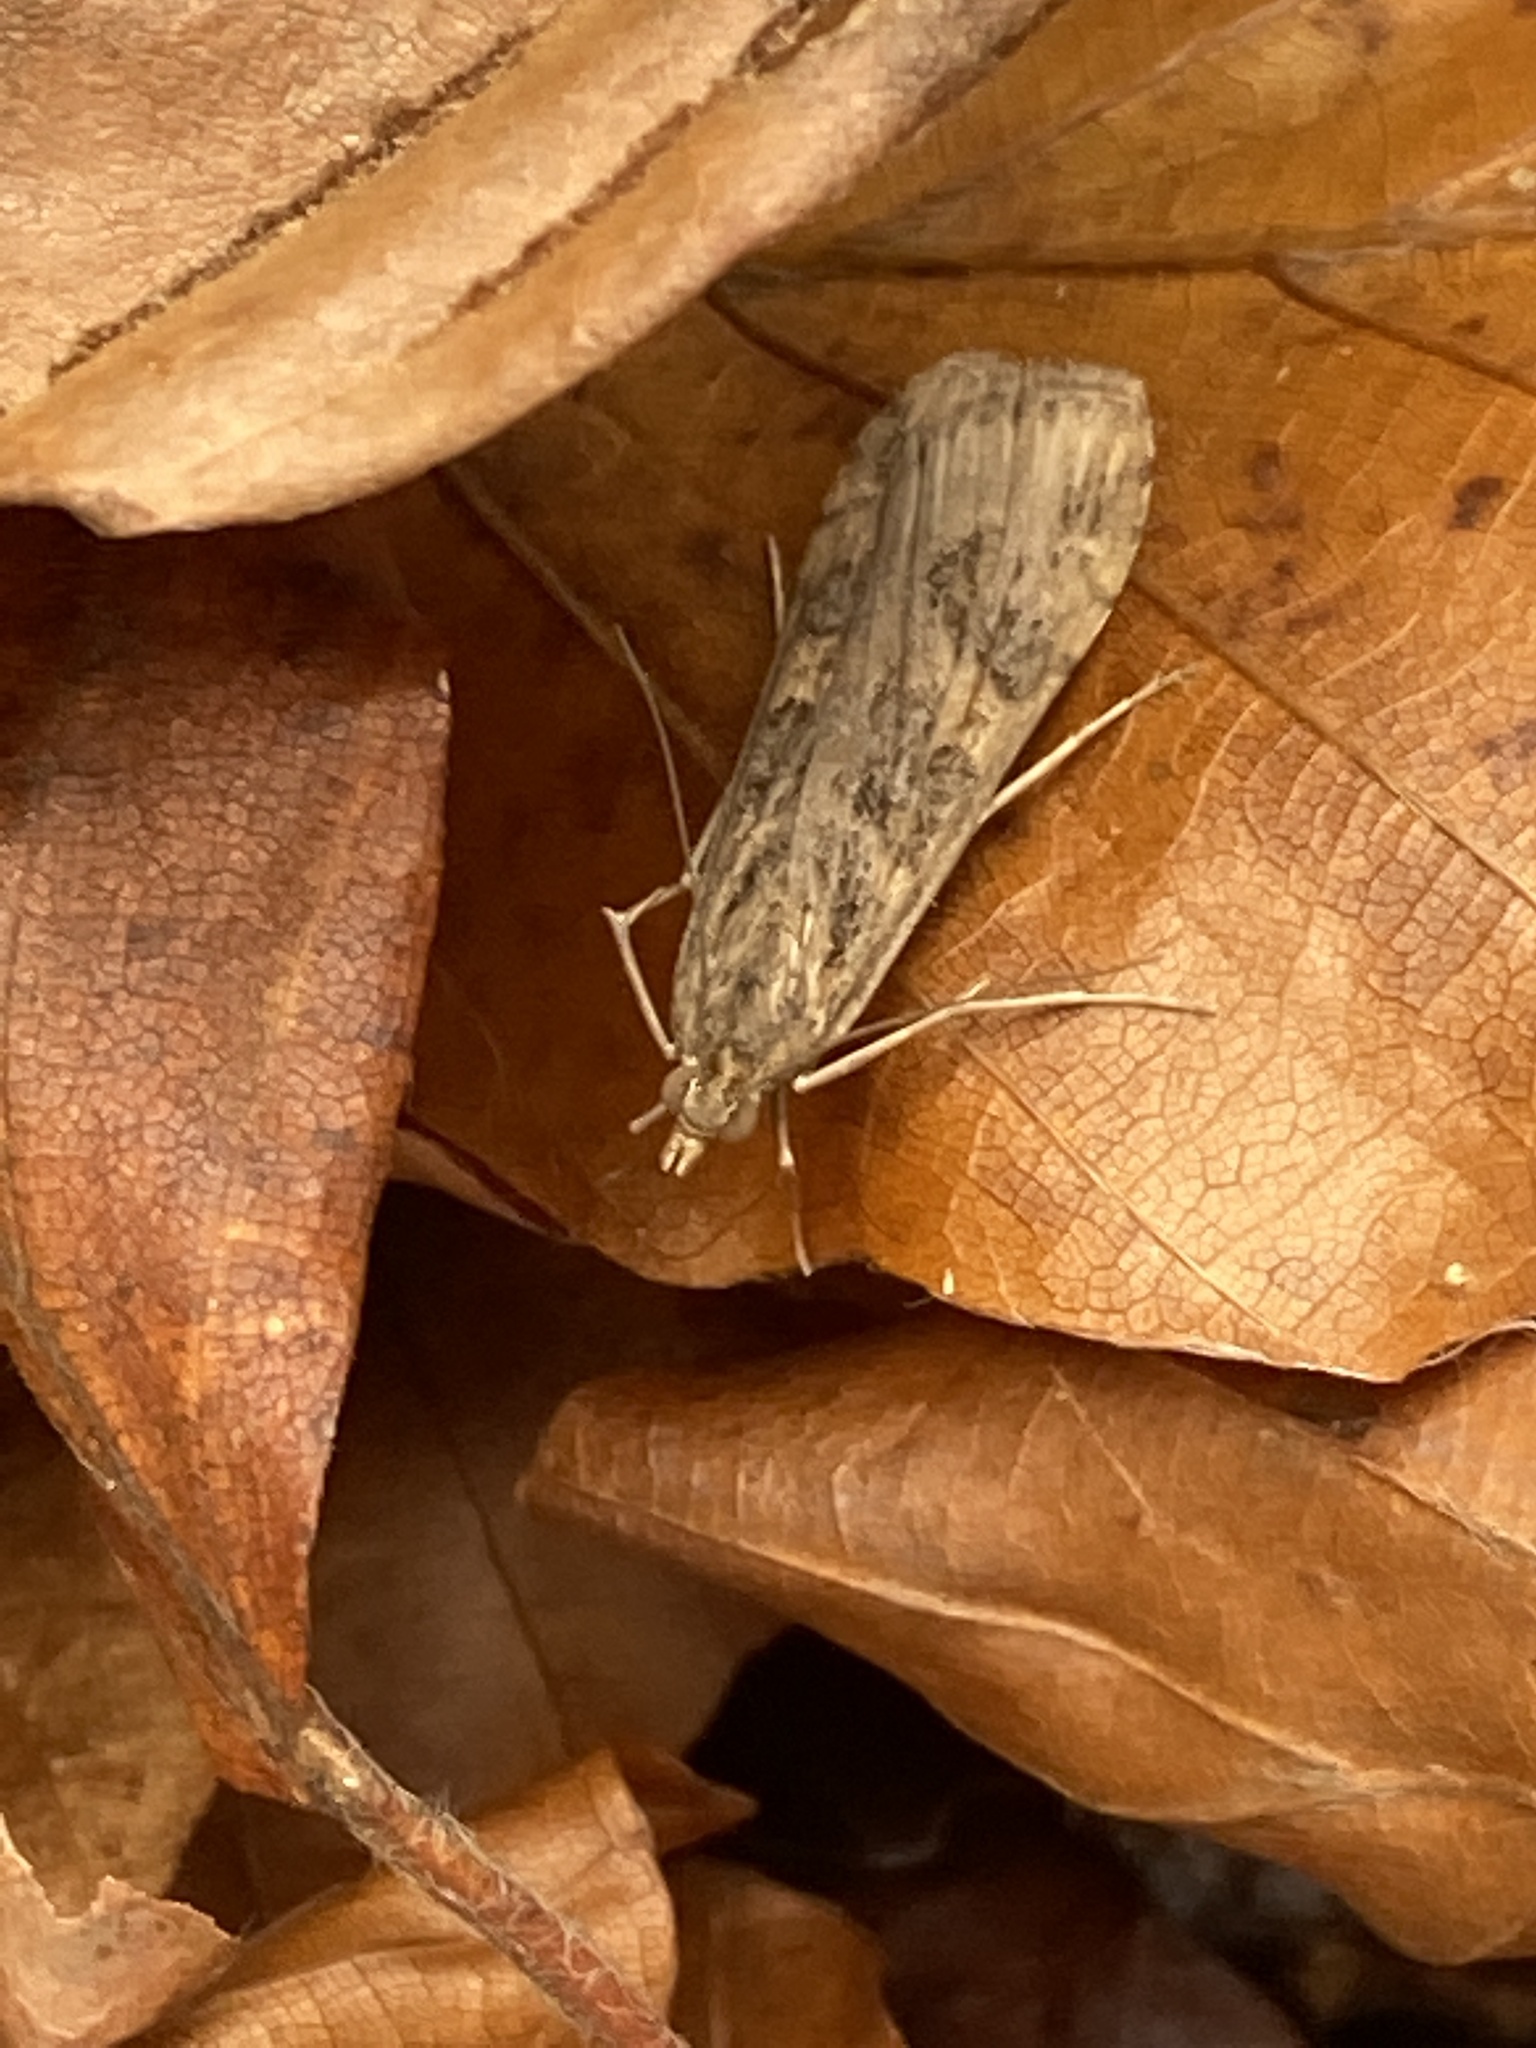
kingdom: Animalia
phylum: Arthropoda
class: Insecta
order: Lepidoptera
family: Crambidae
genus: Nomophila
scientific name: Nomophila noctuella
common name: Rush veneer
